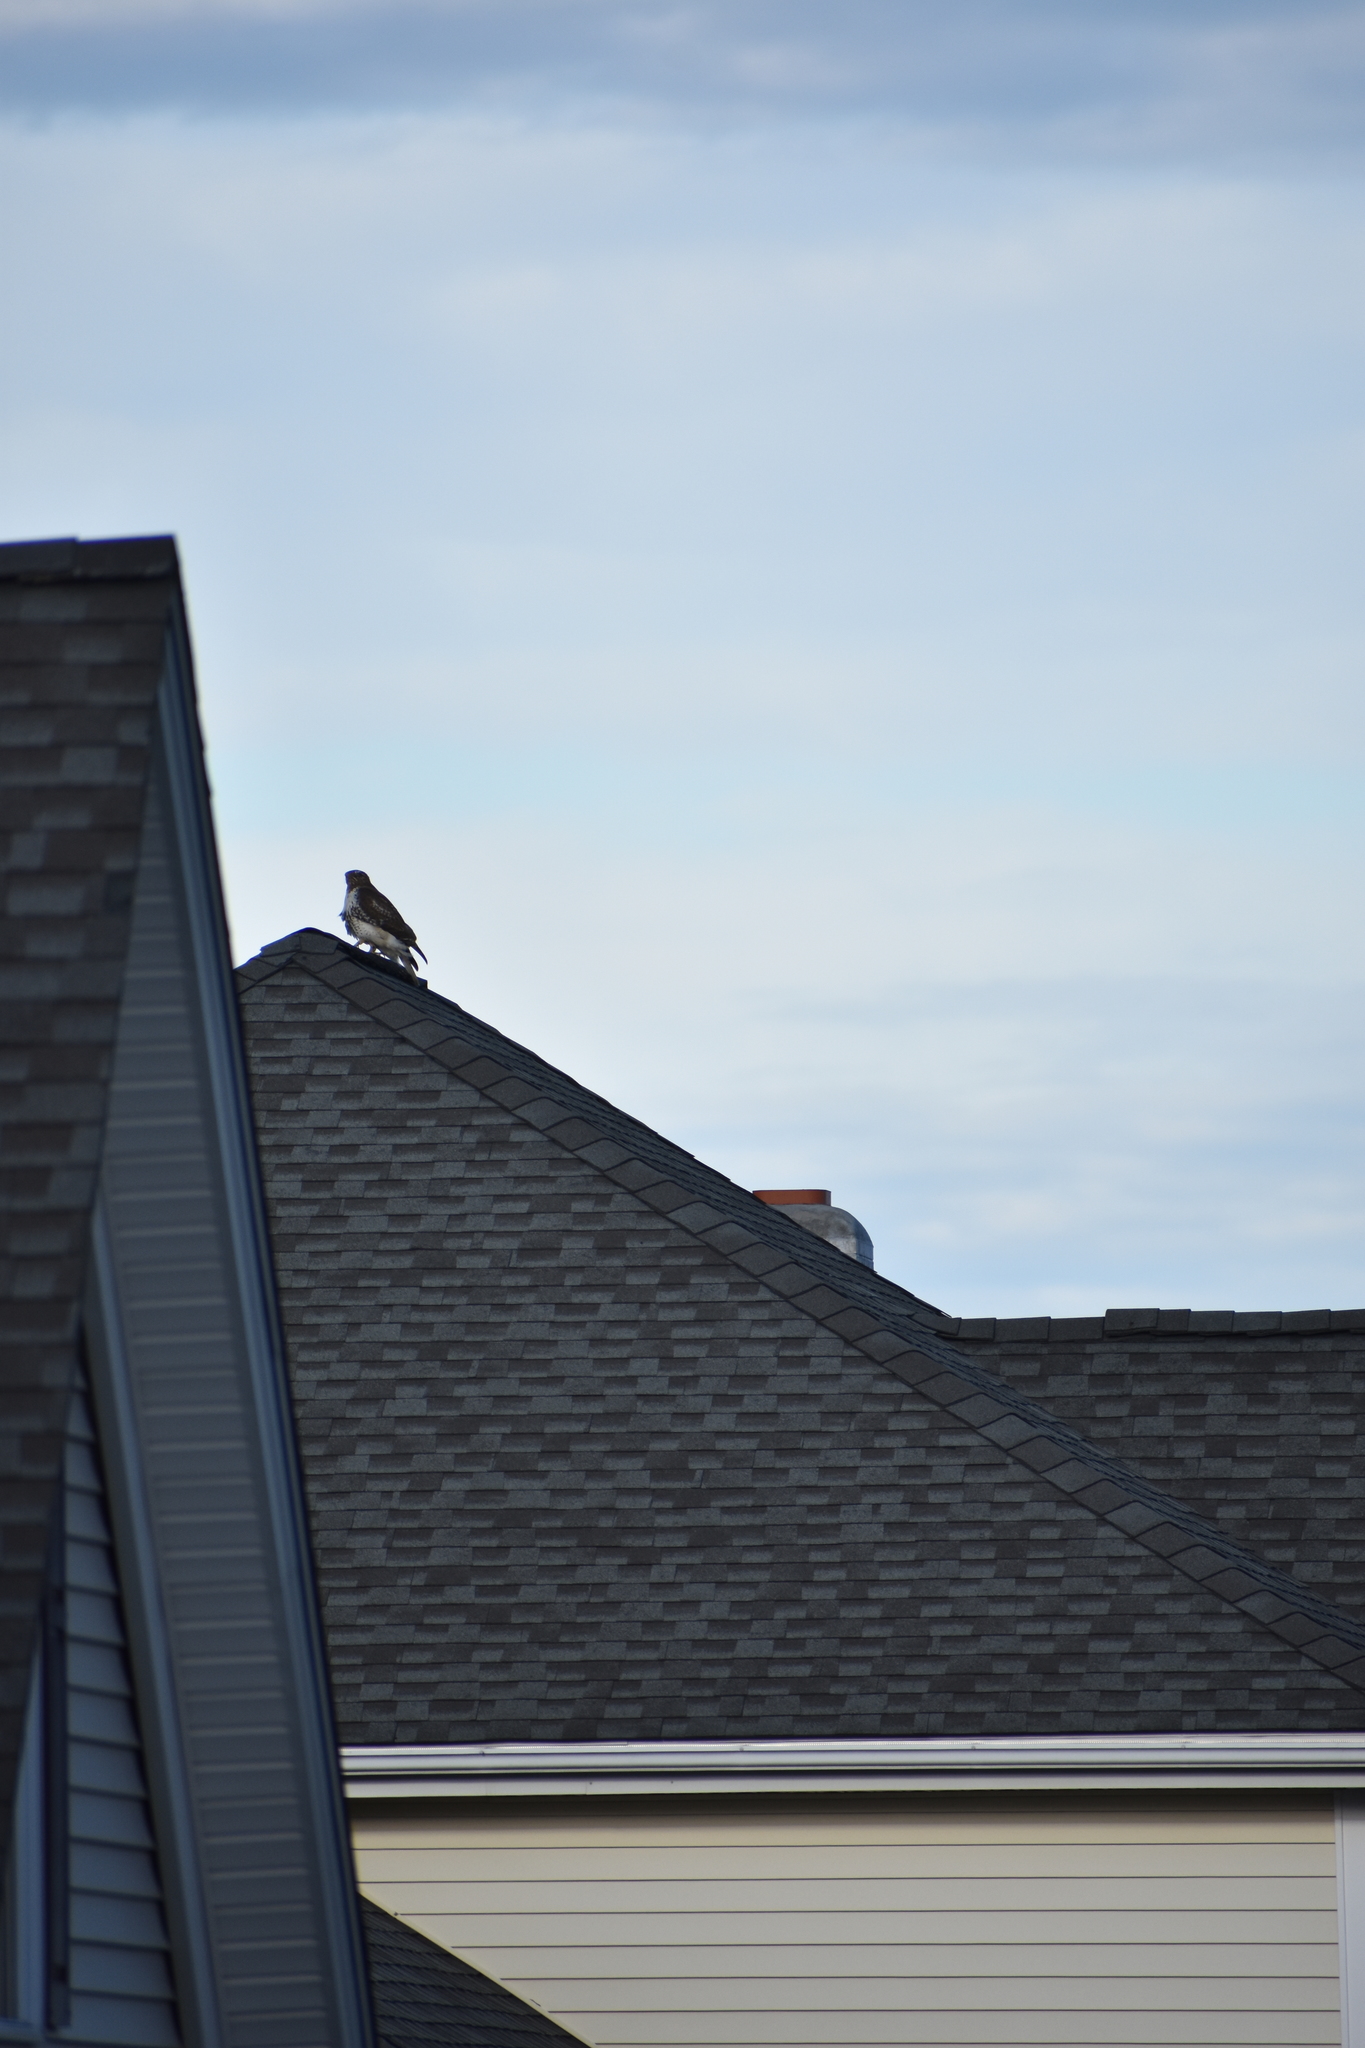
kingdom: Animalia
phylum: Chordata
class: Aves
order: Accipitriformes
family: Accipitridae
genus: Buteo
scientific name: Buteo jamaicensis
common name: Red-tailed hawk
